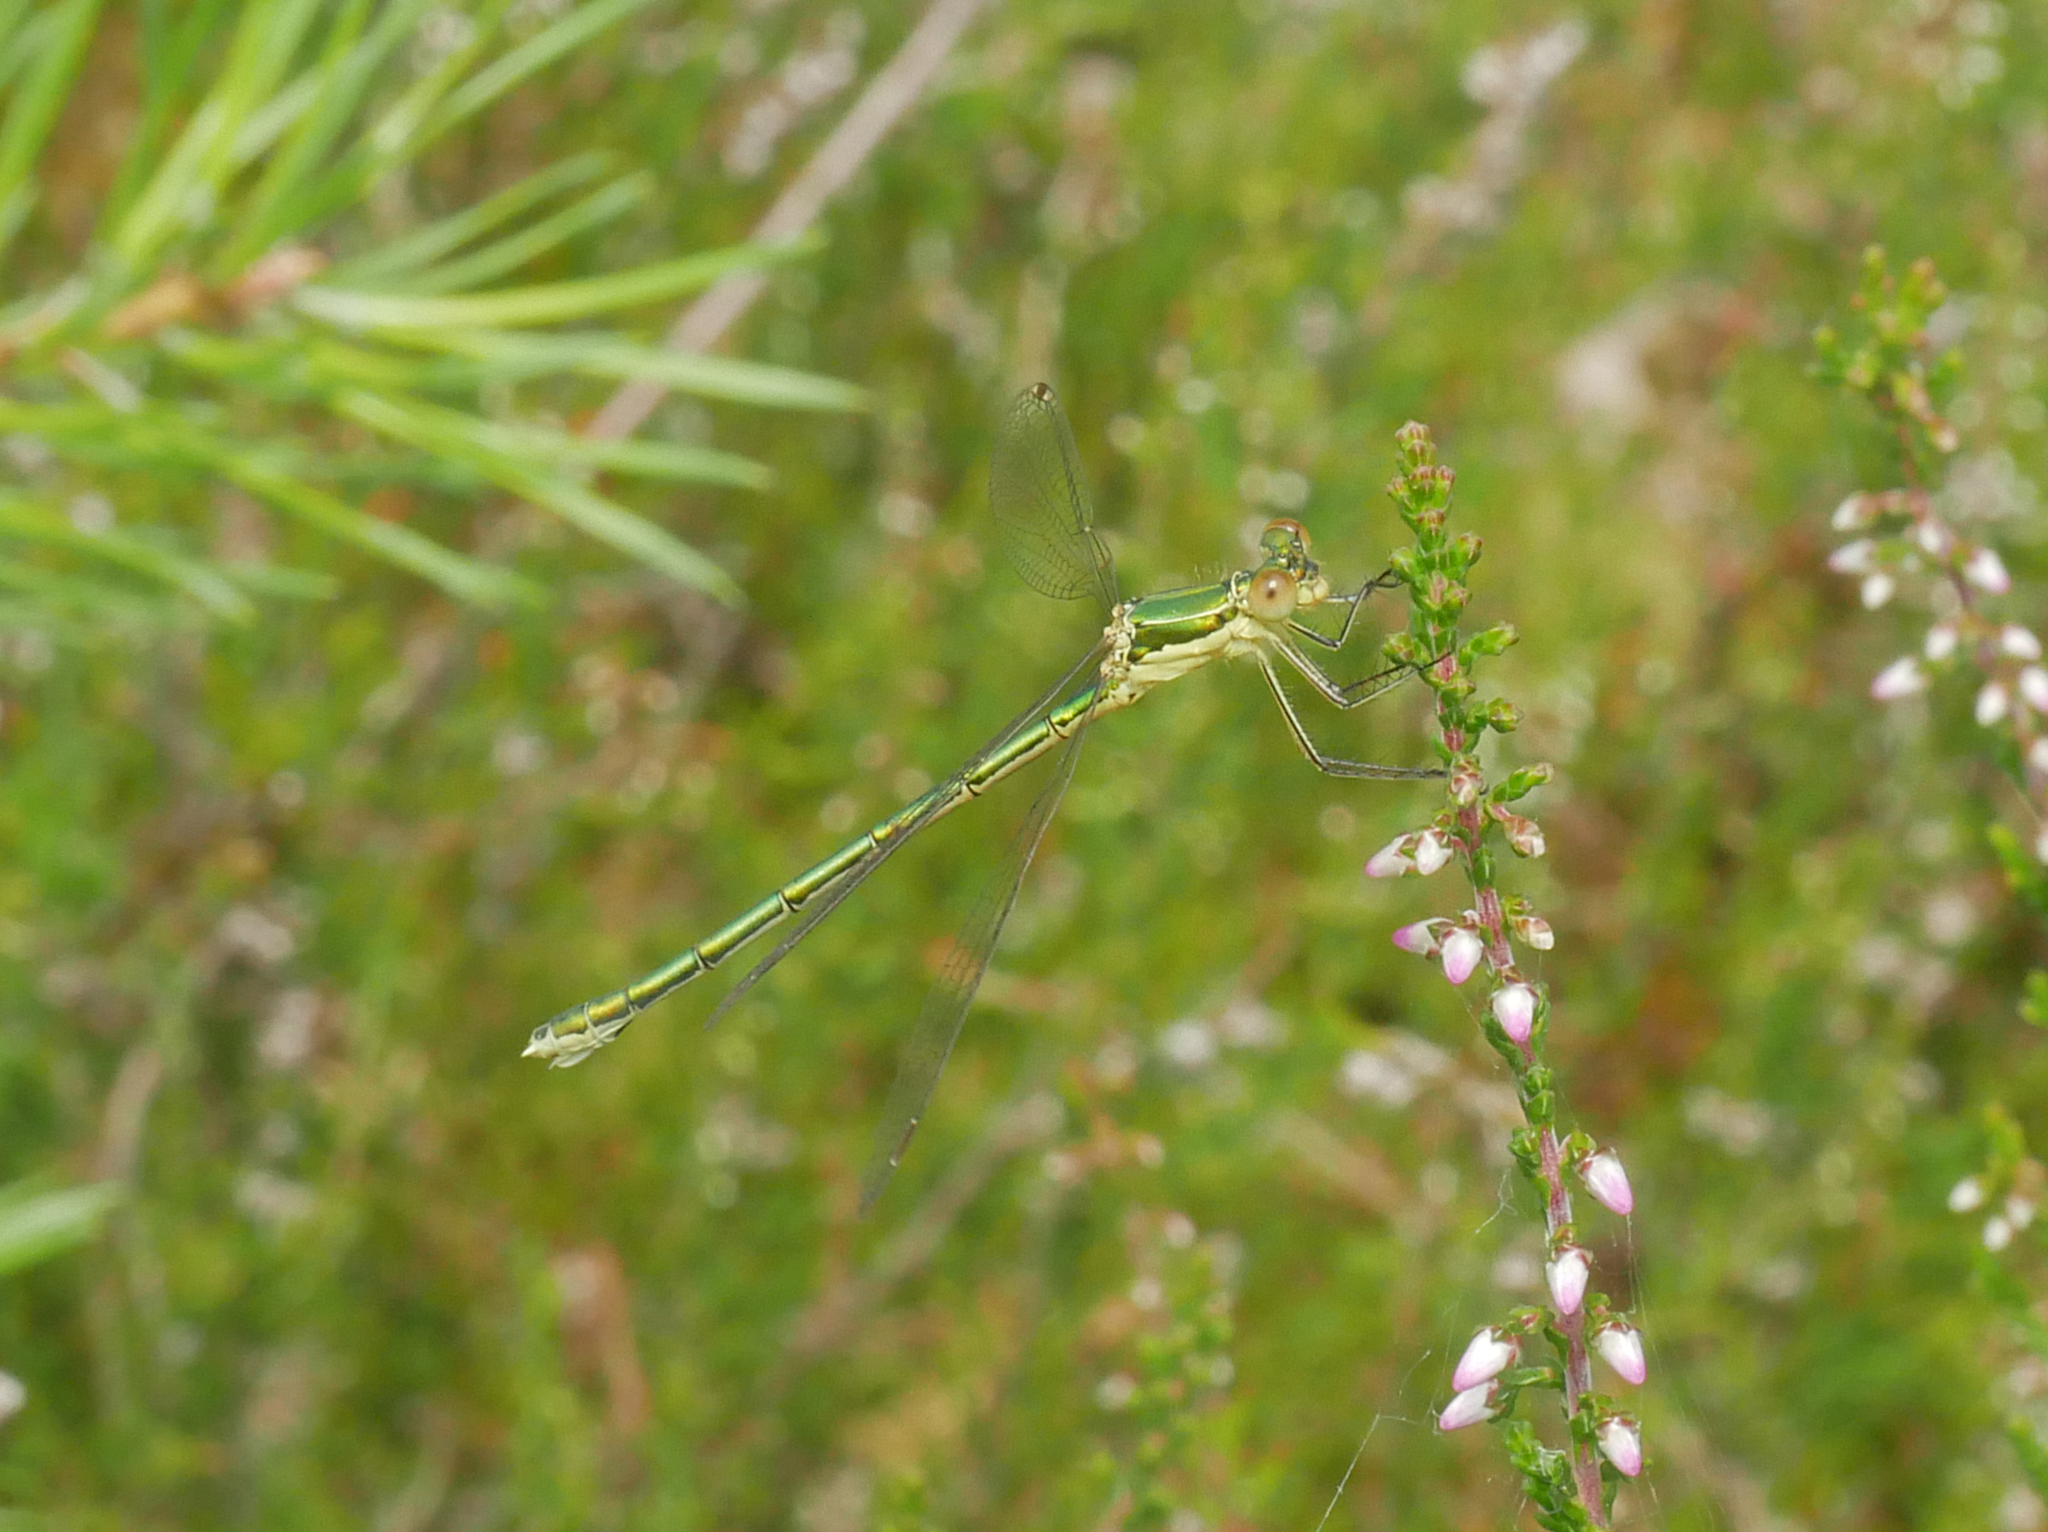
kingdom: Animalia
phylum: Arthropoda
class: Insecta
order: Odonata
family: Lestidae
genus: Lestes
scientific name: Lestes virens
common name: Small emerald spreadwing
